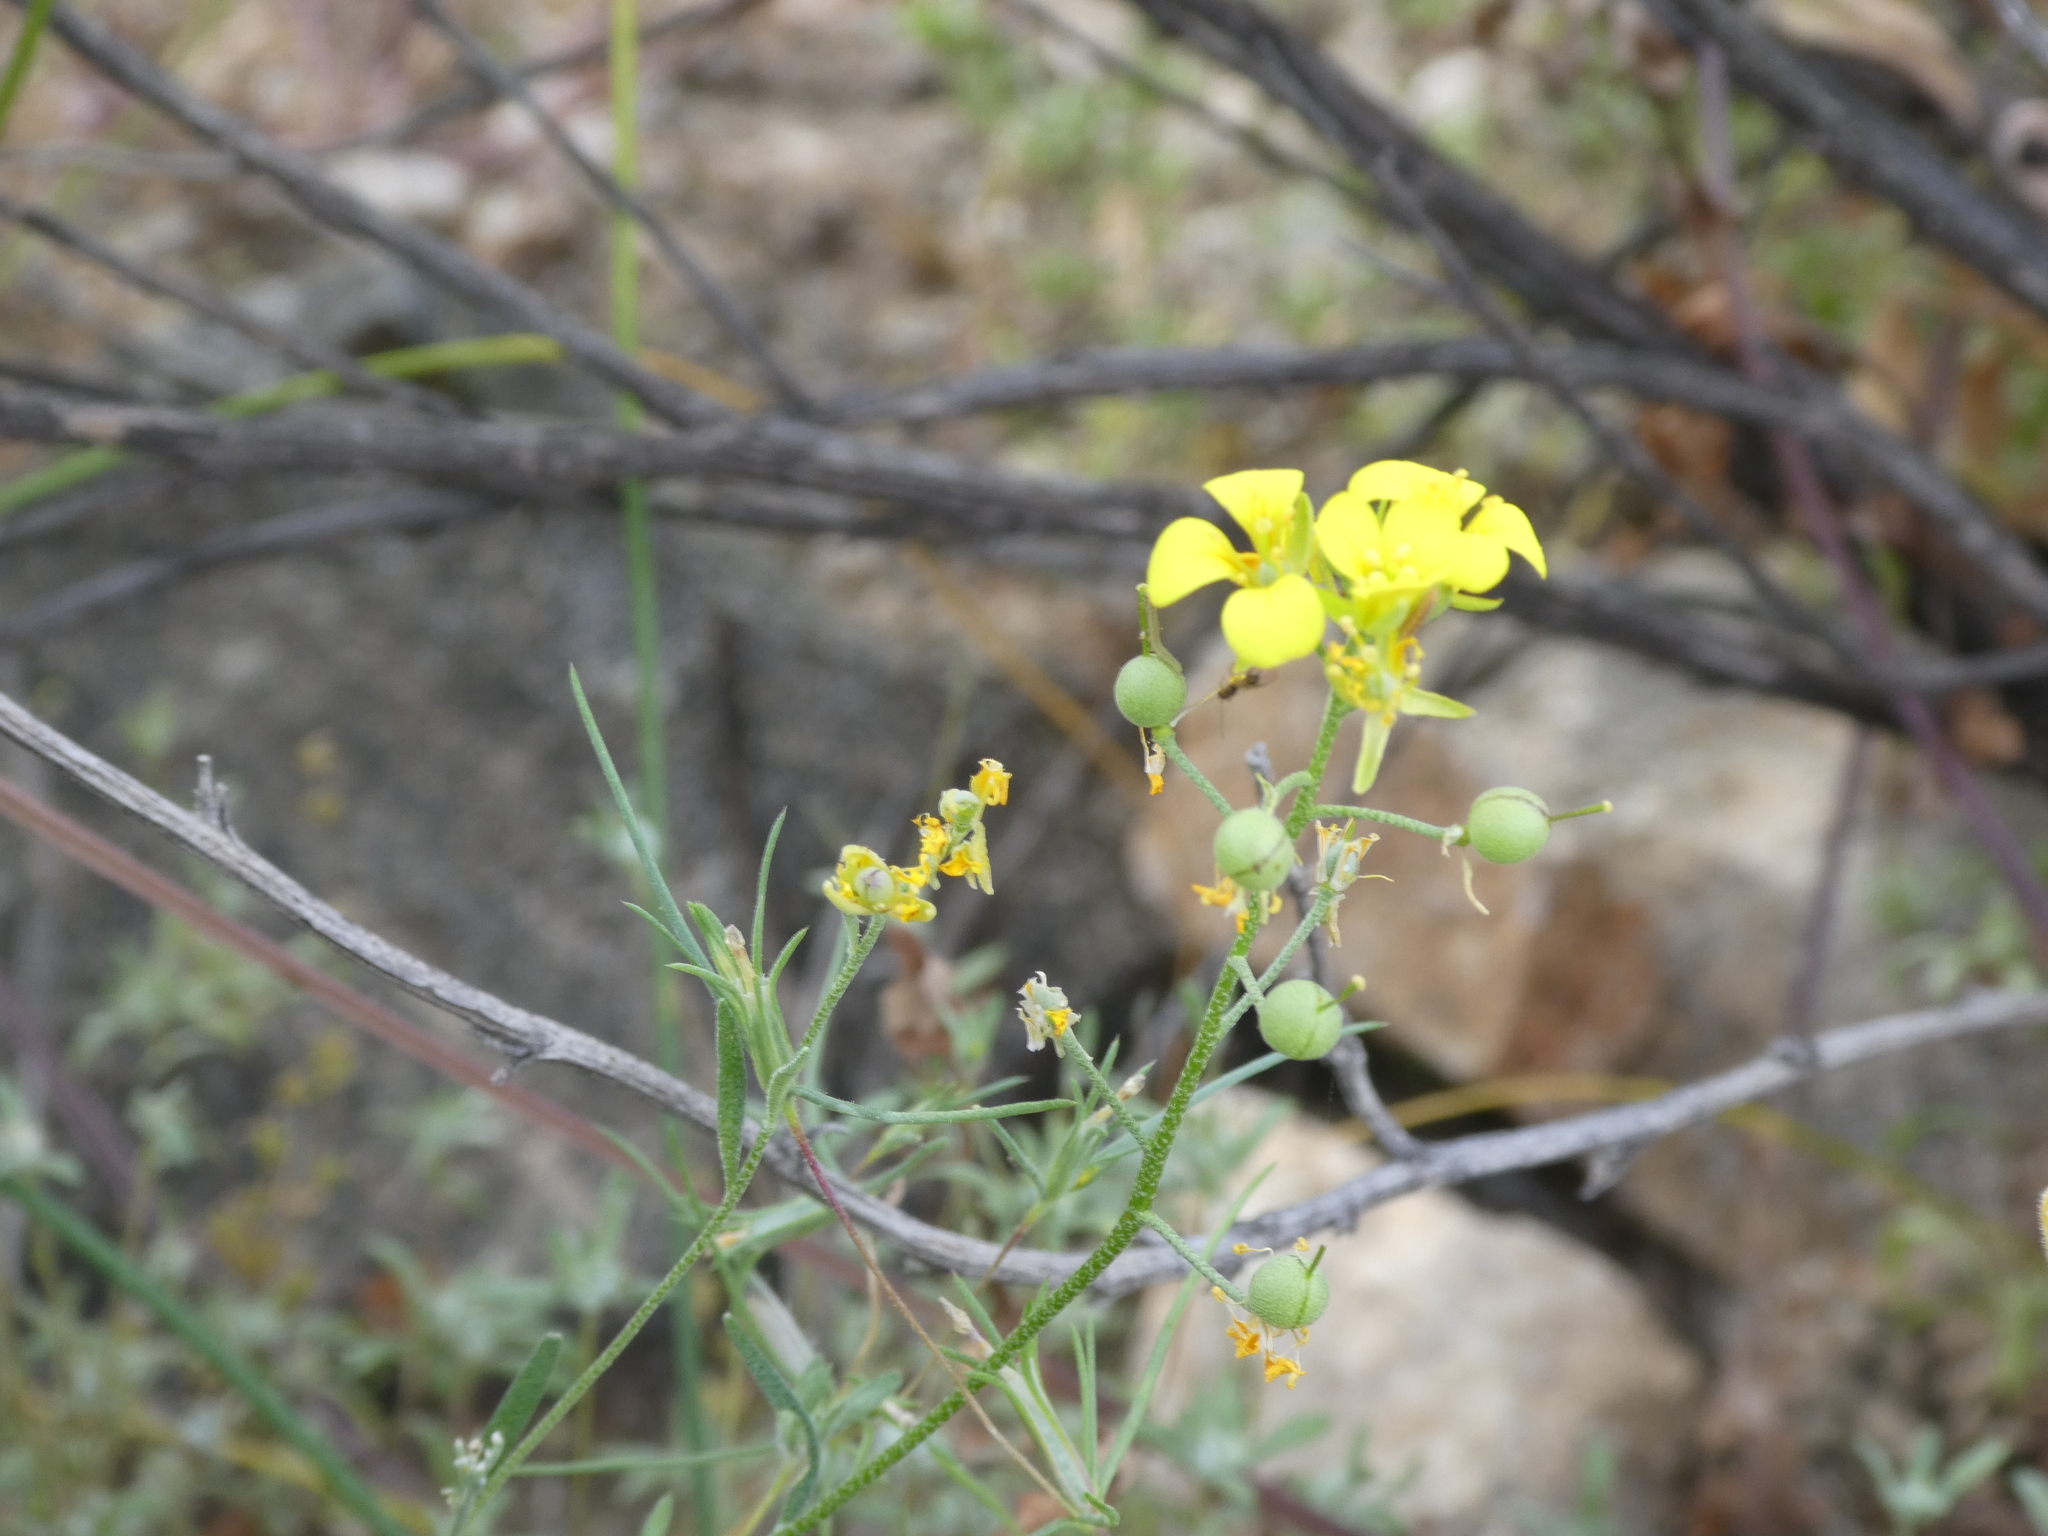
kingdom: Plantae
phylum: Tracheophyta
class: Magnoliopsida
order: Brassicales
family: Brassicaceae
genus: Physaria
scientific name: Physaria tenella
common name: Moapa bladderpod
